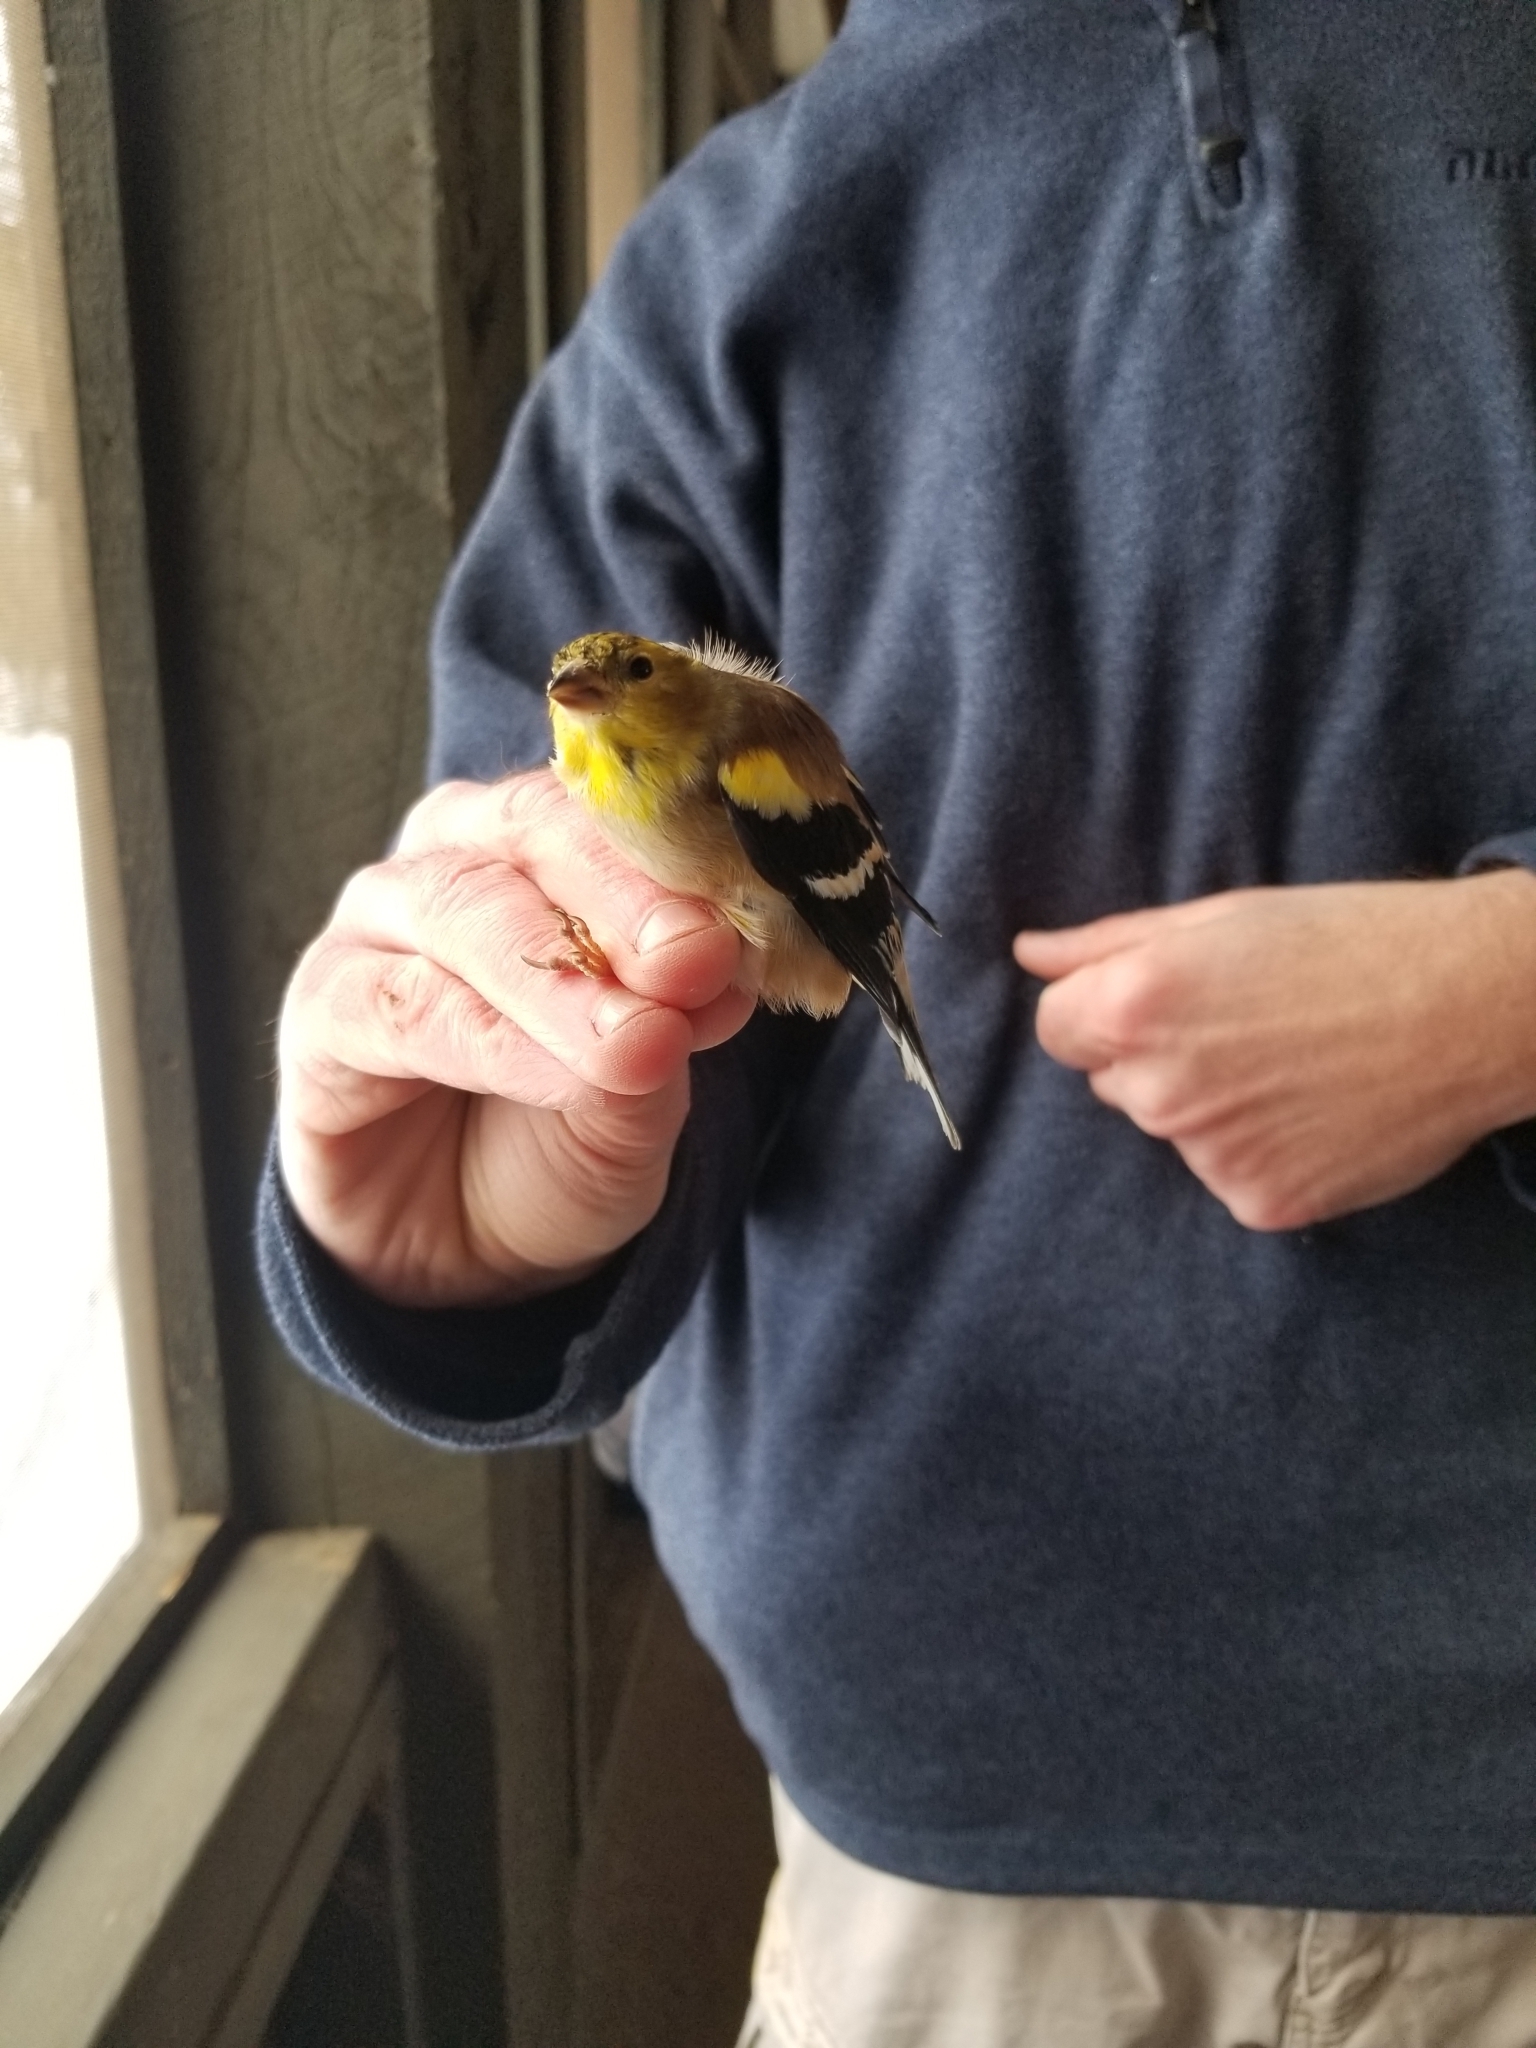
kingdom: Animalia
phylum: Chordata
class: Aves
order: Passeriformes
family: Fringillidae
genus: Spinus
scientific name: Spinus tristis
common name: American goldfinch
